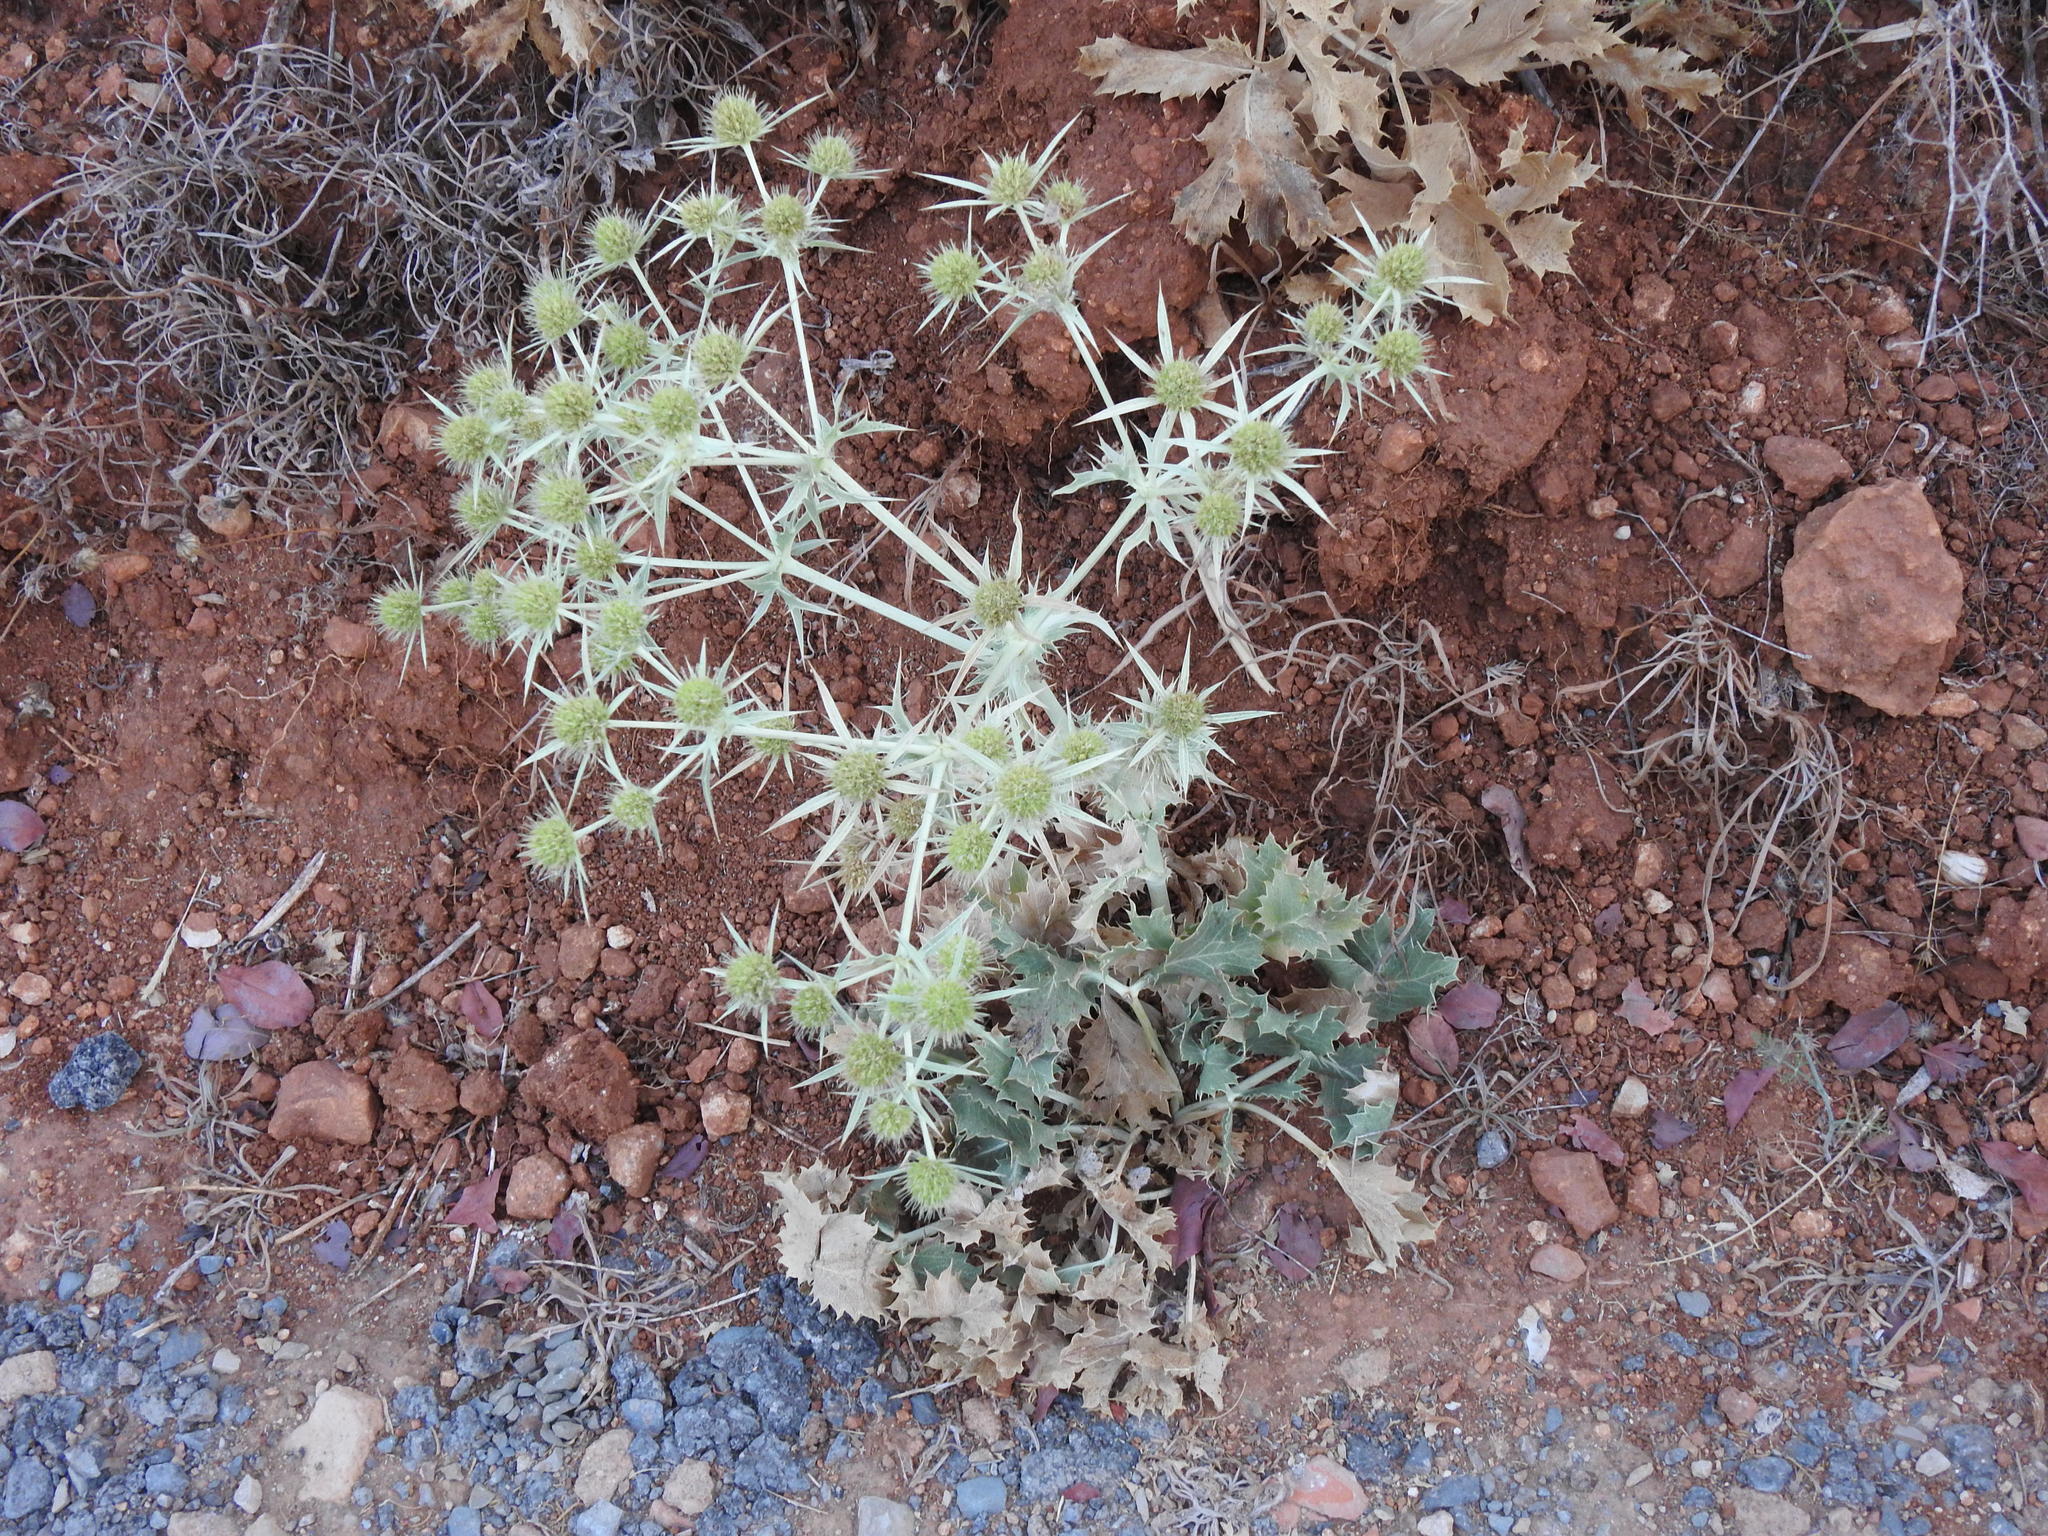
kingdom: Plantae
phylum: Tracheophyta
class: Magnoliopsida
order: Apiales
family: Apiaceae
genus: Eryngium
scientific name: Eryngium campestre
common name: Field eryngo
